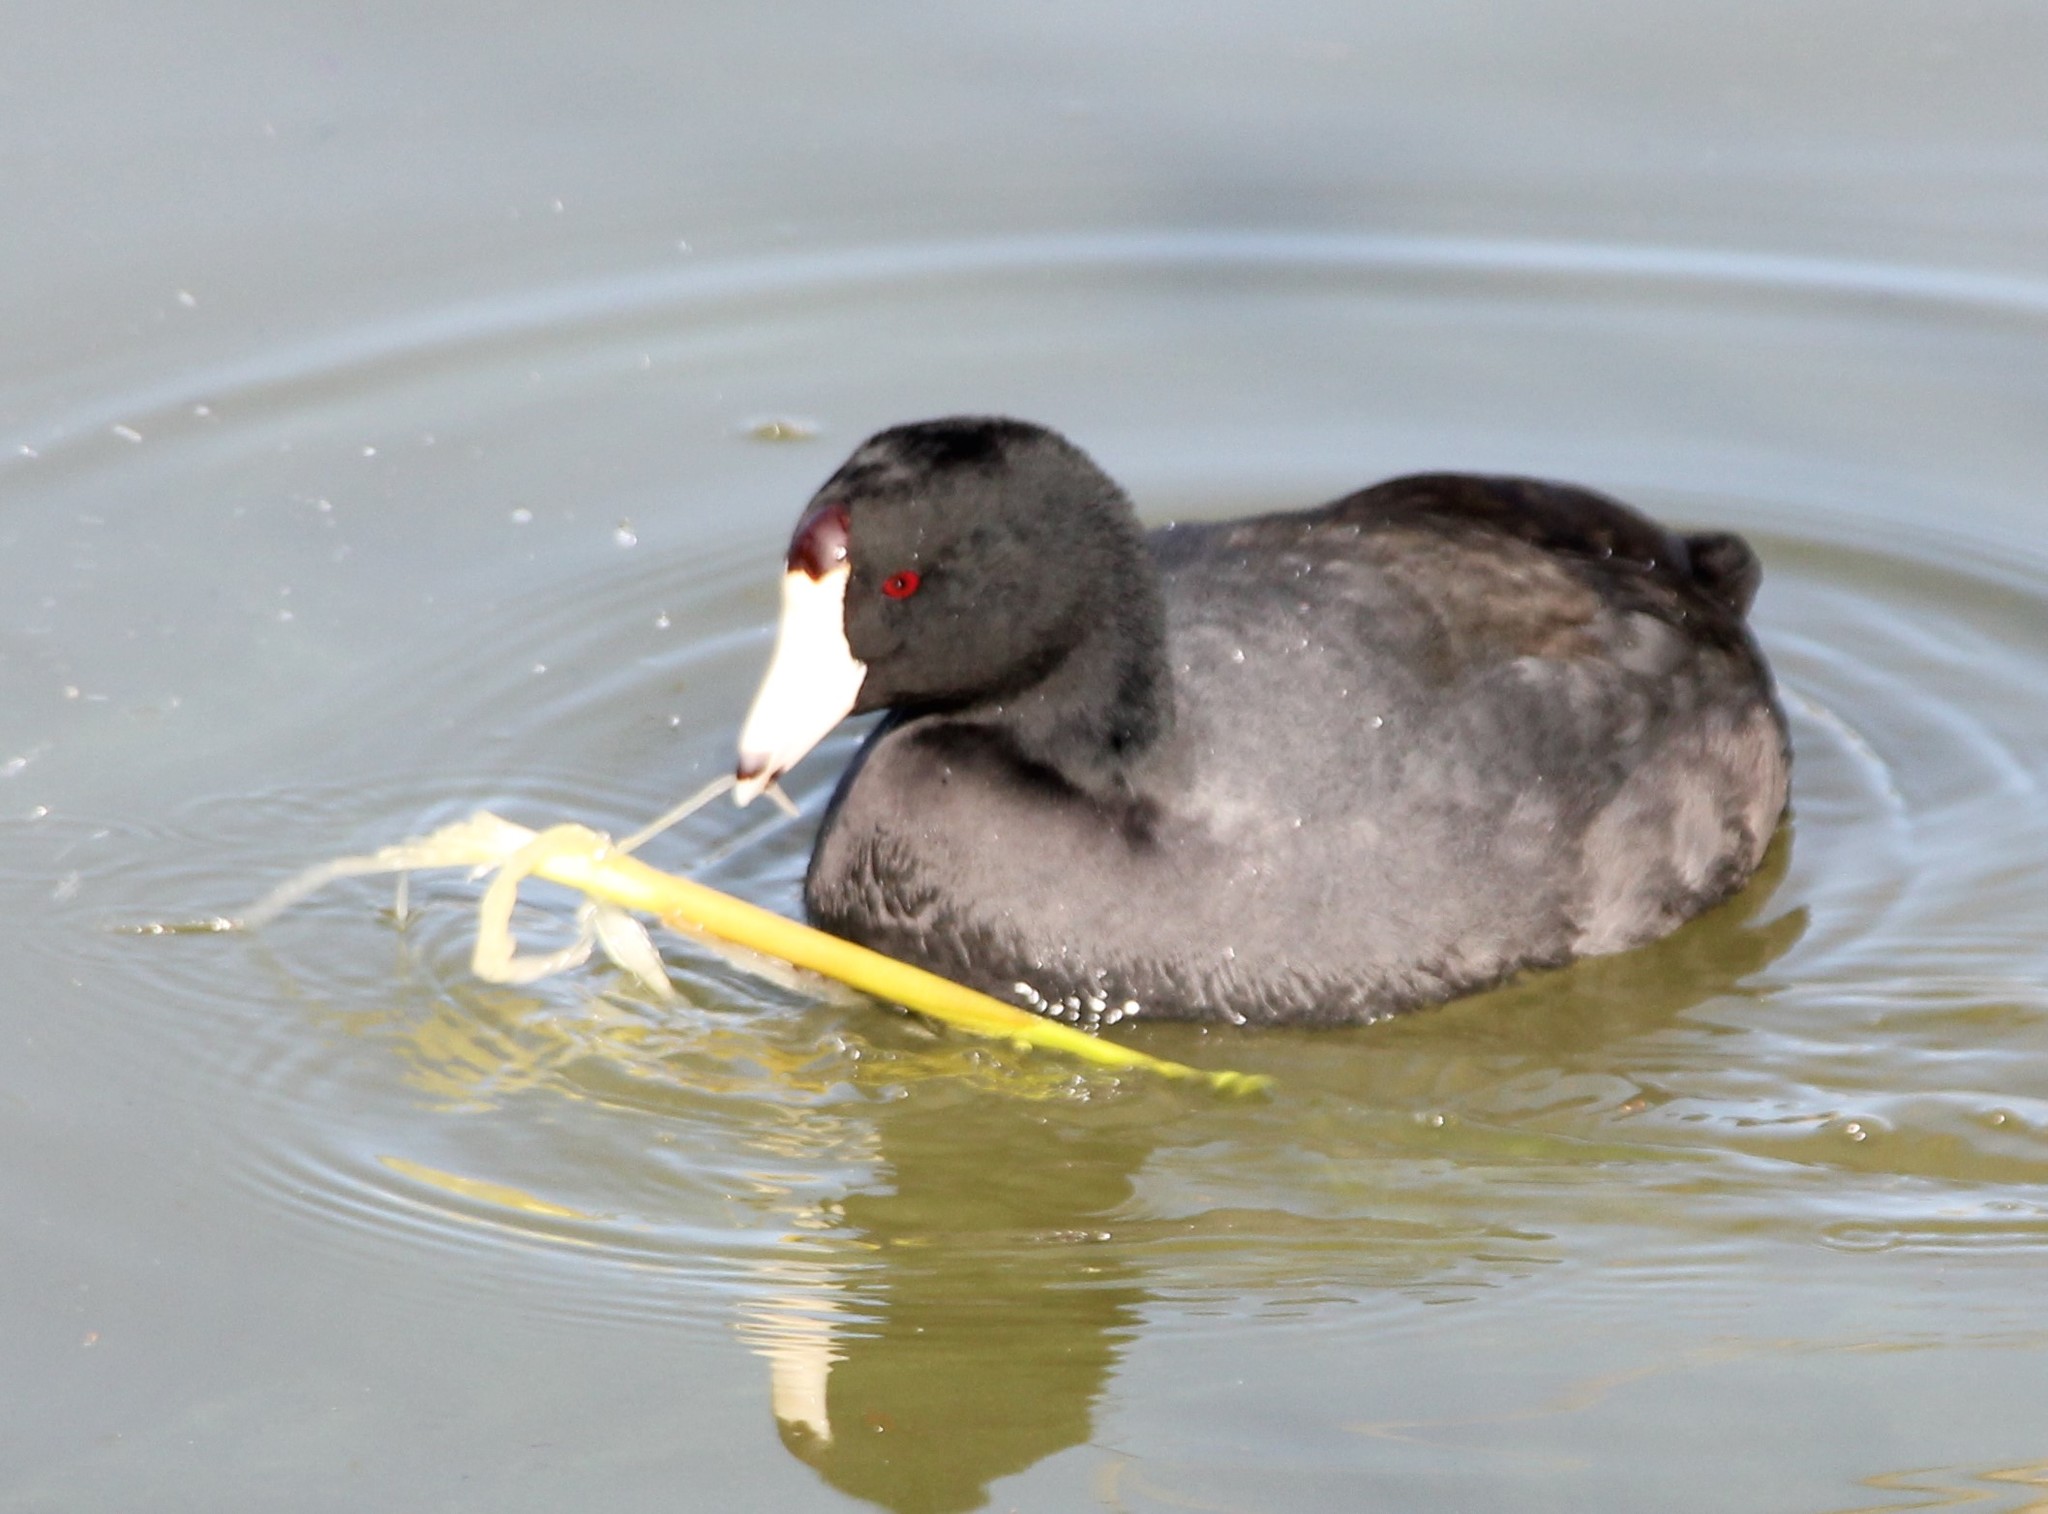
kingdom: Animalia
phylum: Chordata
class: Aves
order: Gruiformes
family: Rallidae
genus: Fulica
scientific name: Fulica americana
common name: American coot
